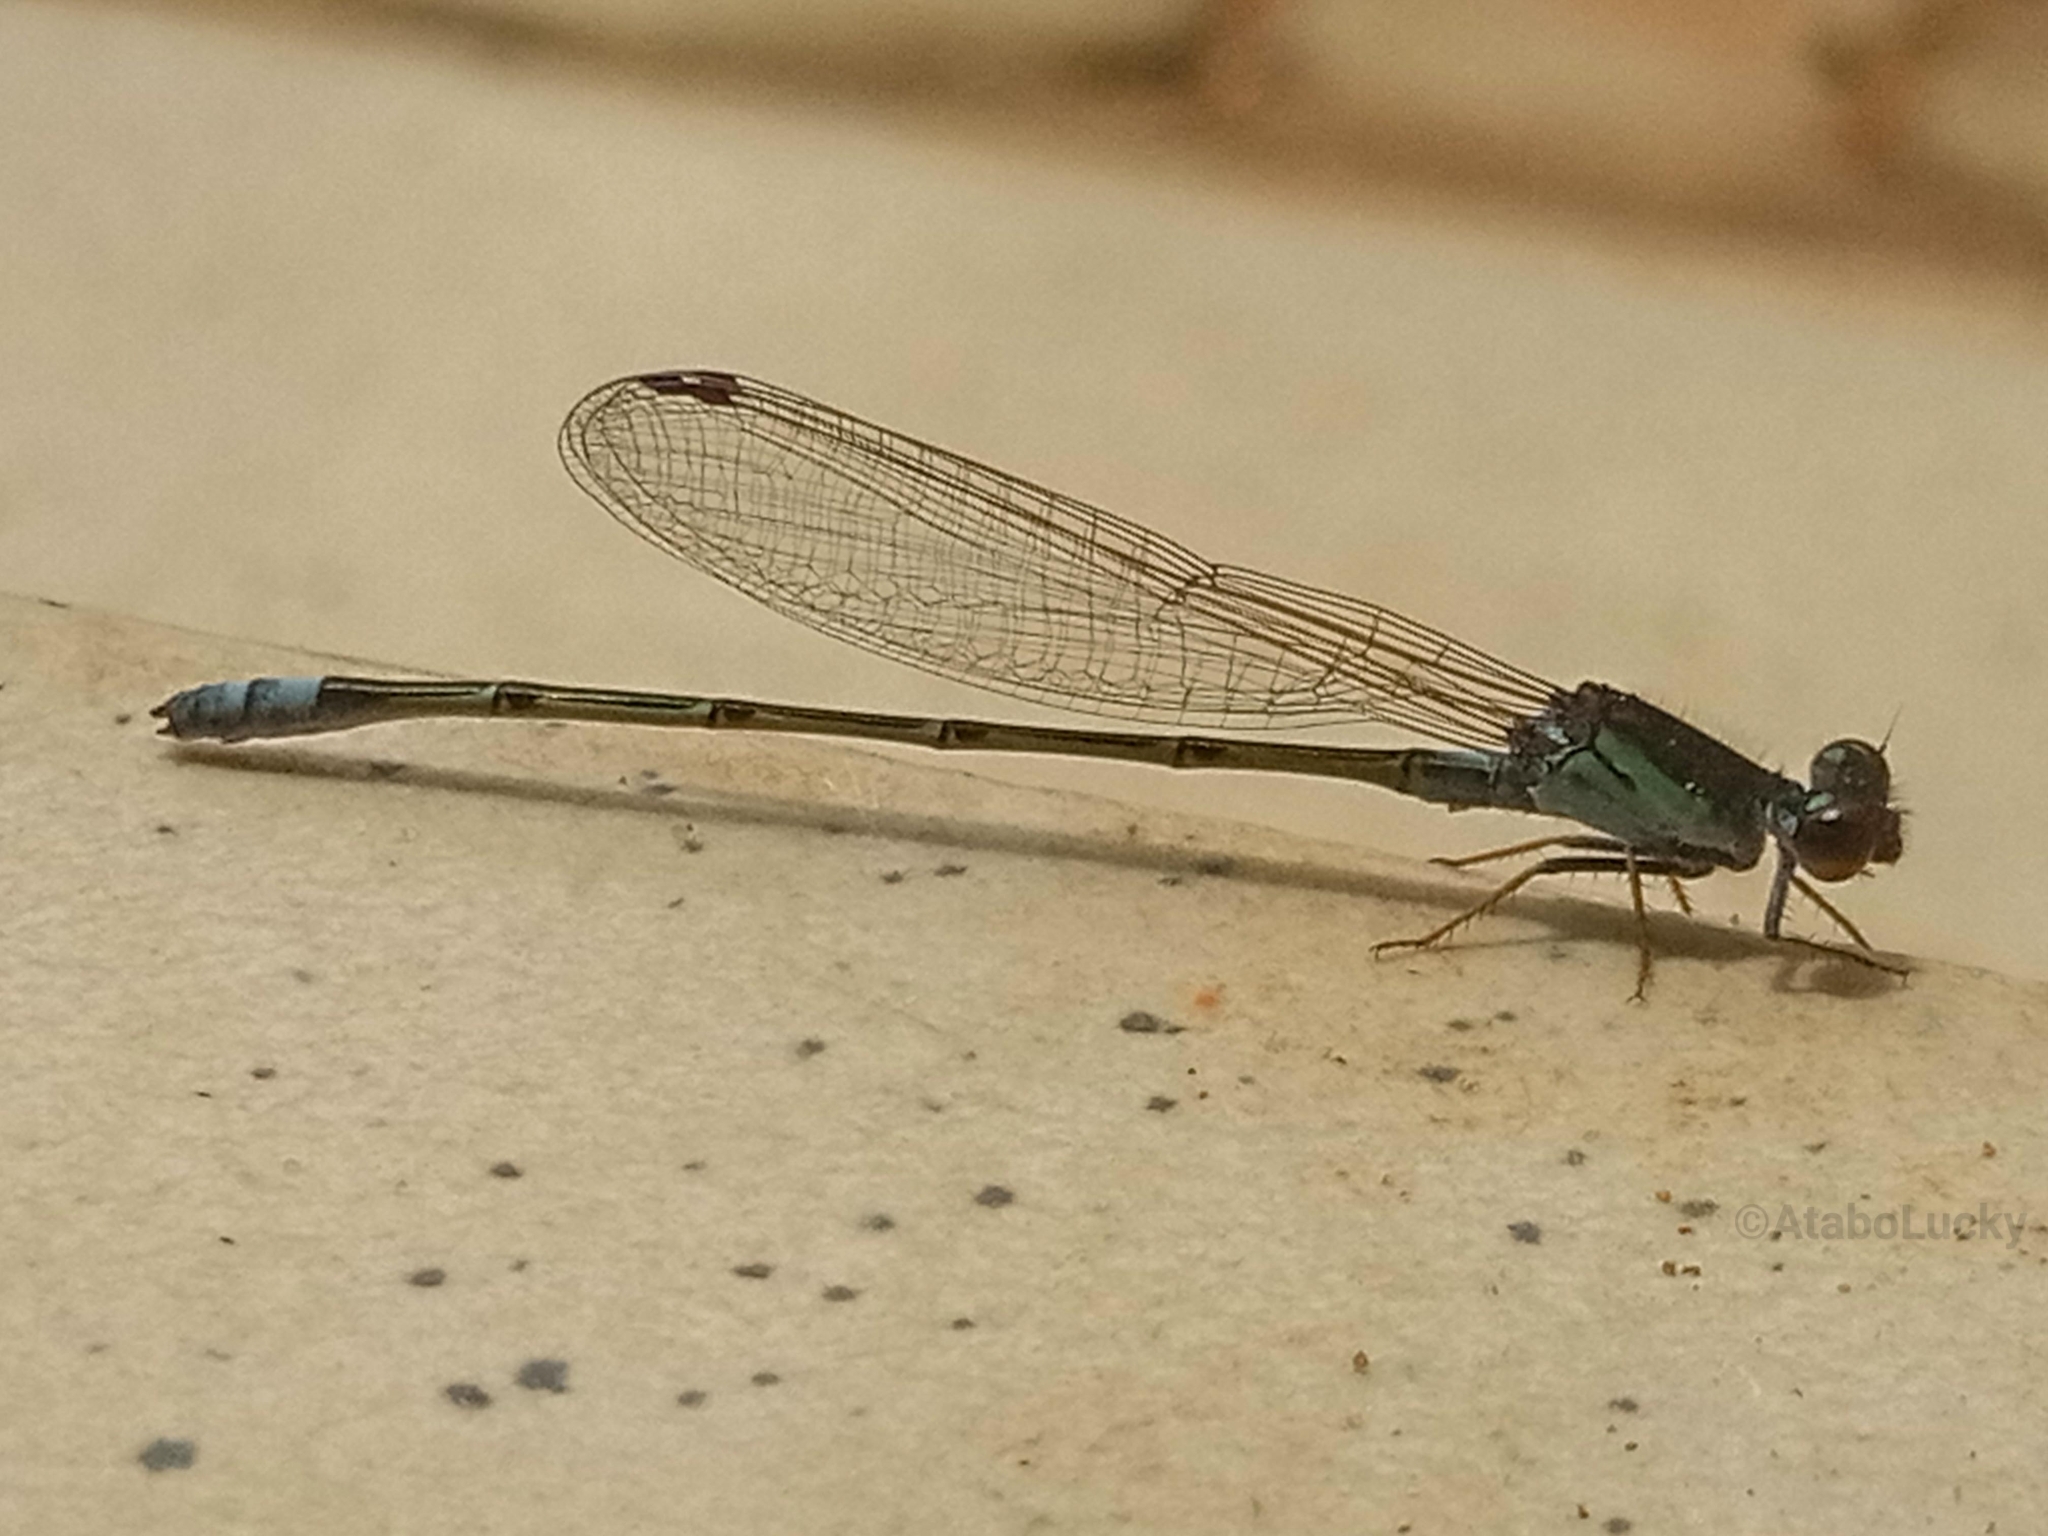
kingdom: Animalia
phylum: Arthropoda
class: Insecta
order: Odonata
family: Coenagrionidae
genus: Pseudagrion
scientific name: Pseudagrion hamoni
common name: Swarthy sprite
